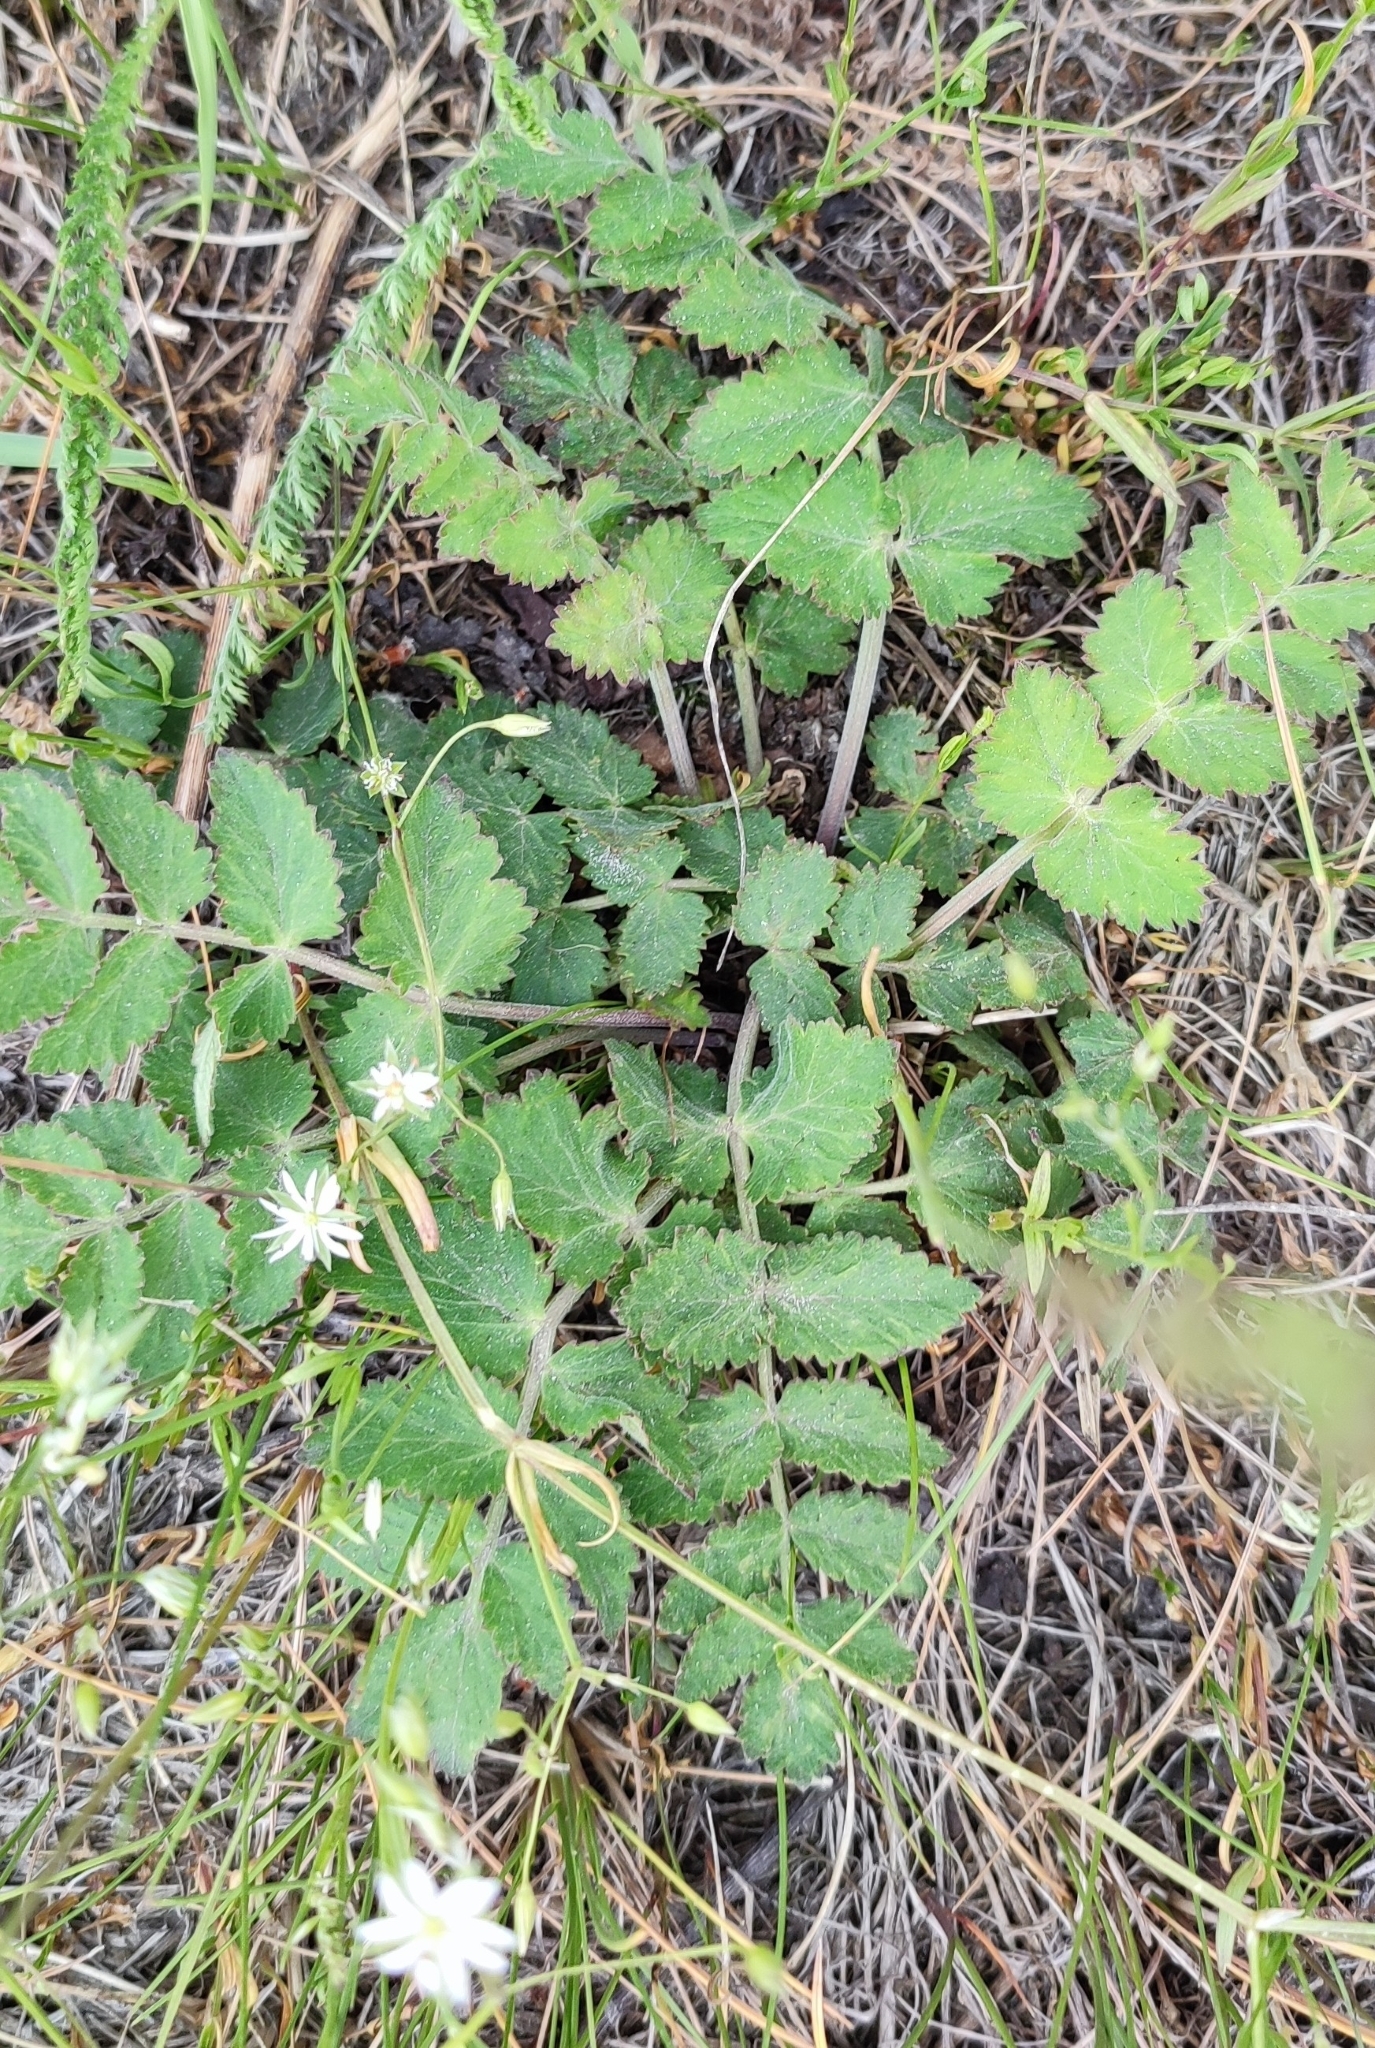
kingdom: Plantae
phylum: Tracheophyta
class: Magnoliopsida
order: Apiales
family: Apiaceae
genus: Pimpinella
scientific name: Pimpinella saxifraga
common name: Burnet-saxifrage
